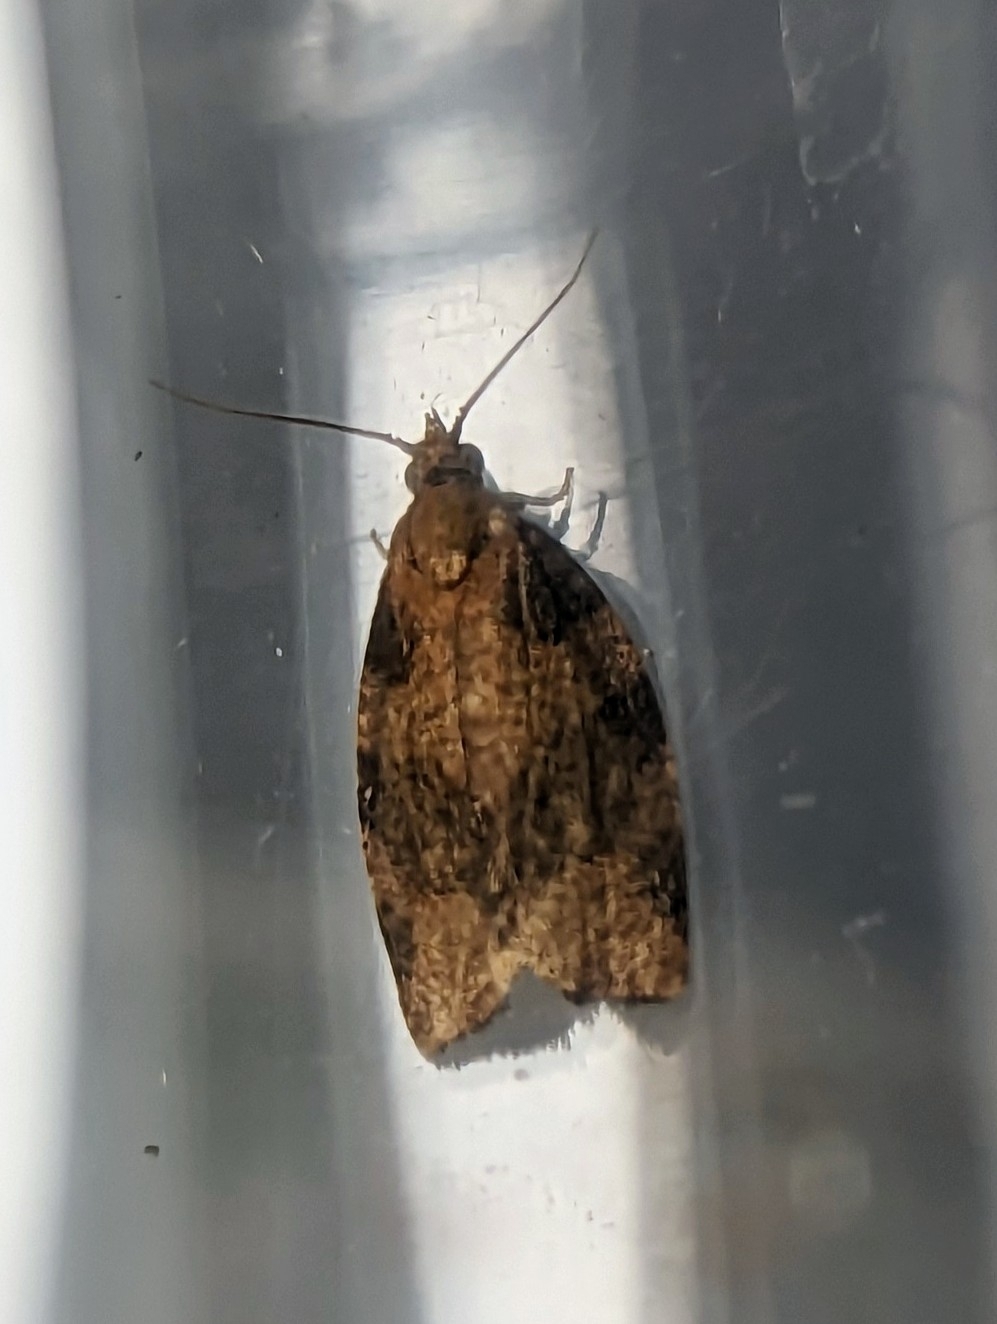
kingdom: Animalia
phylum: Arthropoda
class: Insecta
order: Lepidoptera
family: Tortricidae
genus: Pandemis
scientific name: Pandemis heparana
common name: Dark fruit-tree tortrix
